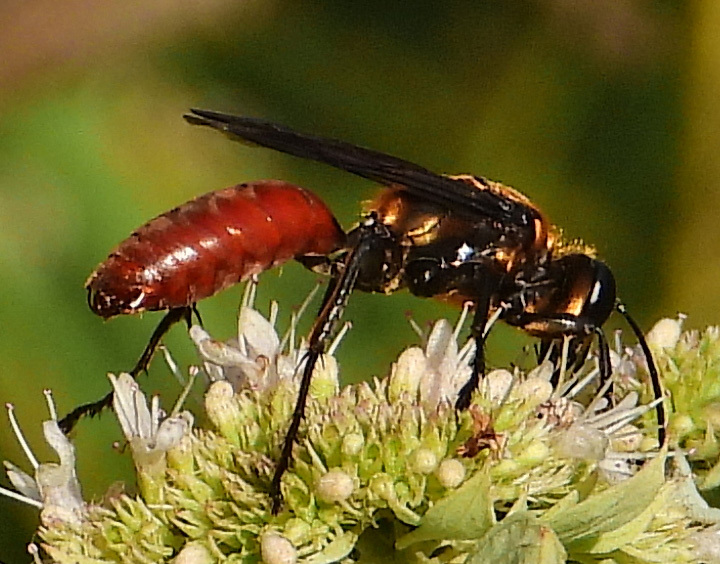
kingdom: Animalia
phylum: Arthropoda
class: Insecta
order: Hymenoptera
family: Sphecidae
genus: Sphex
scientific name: Sphex habenus
